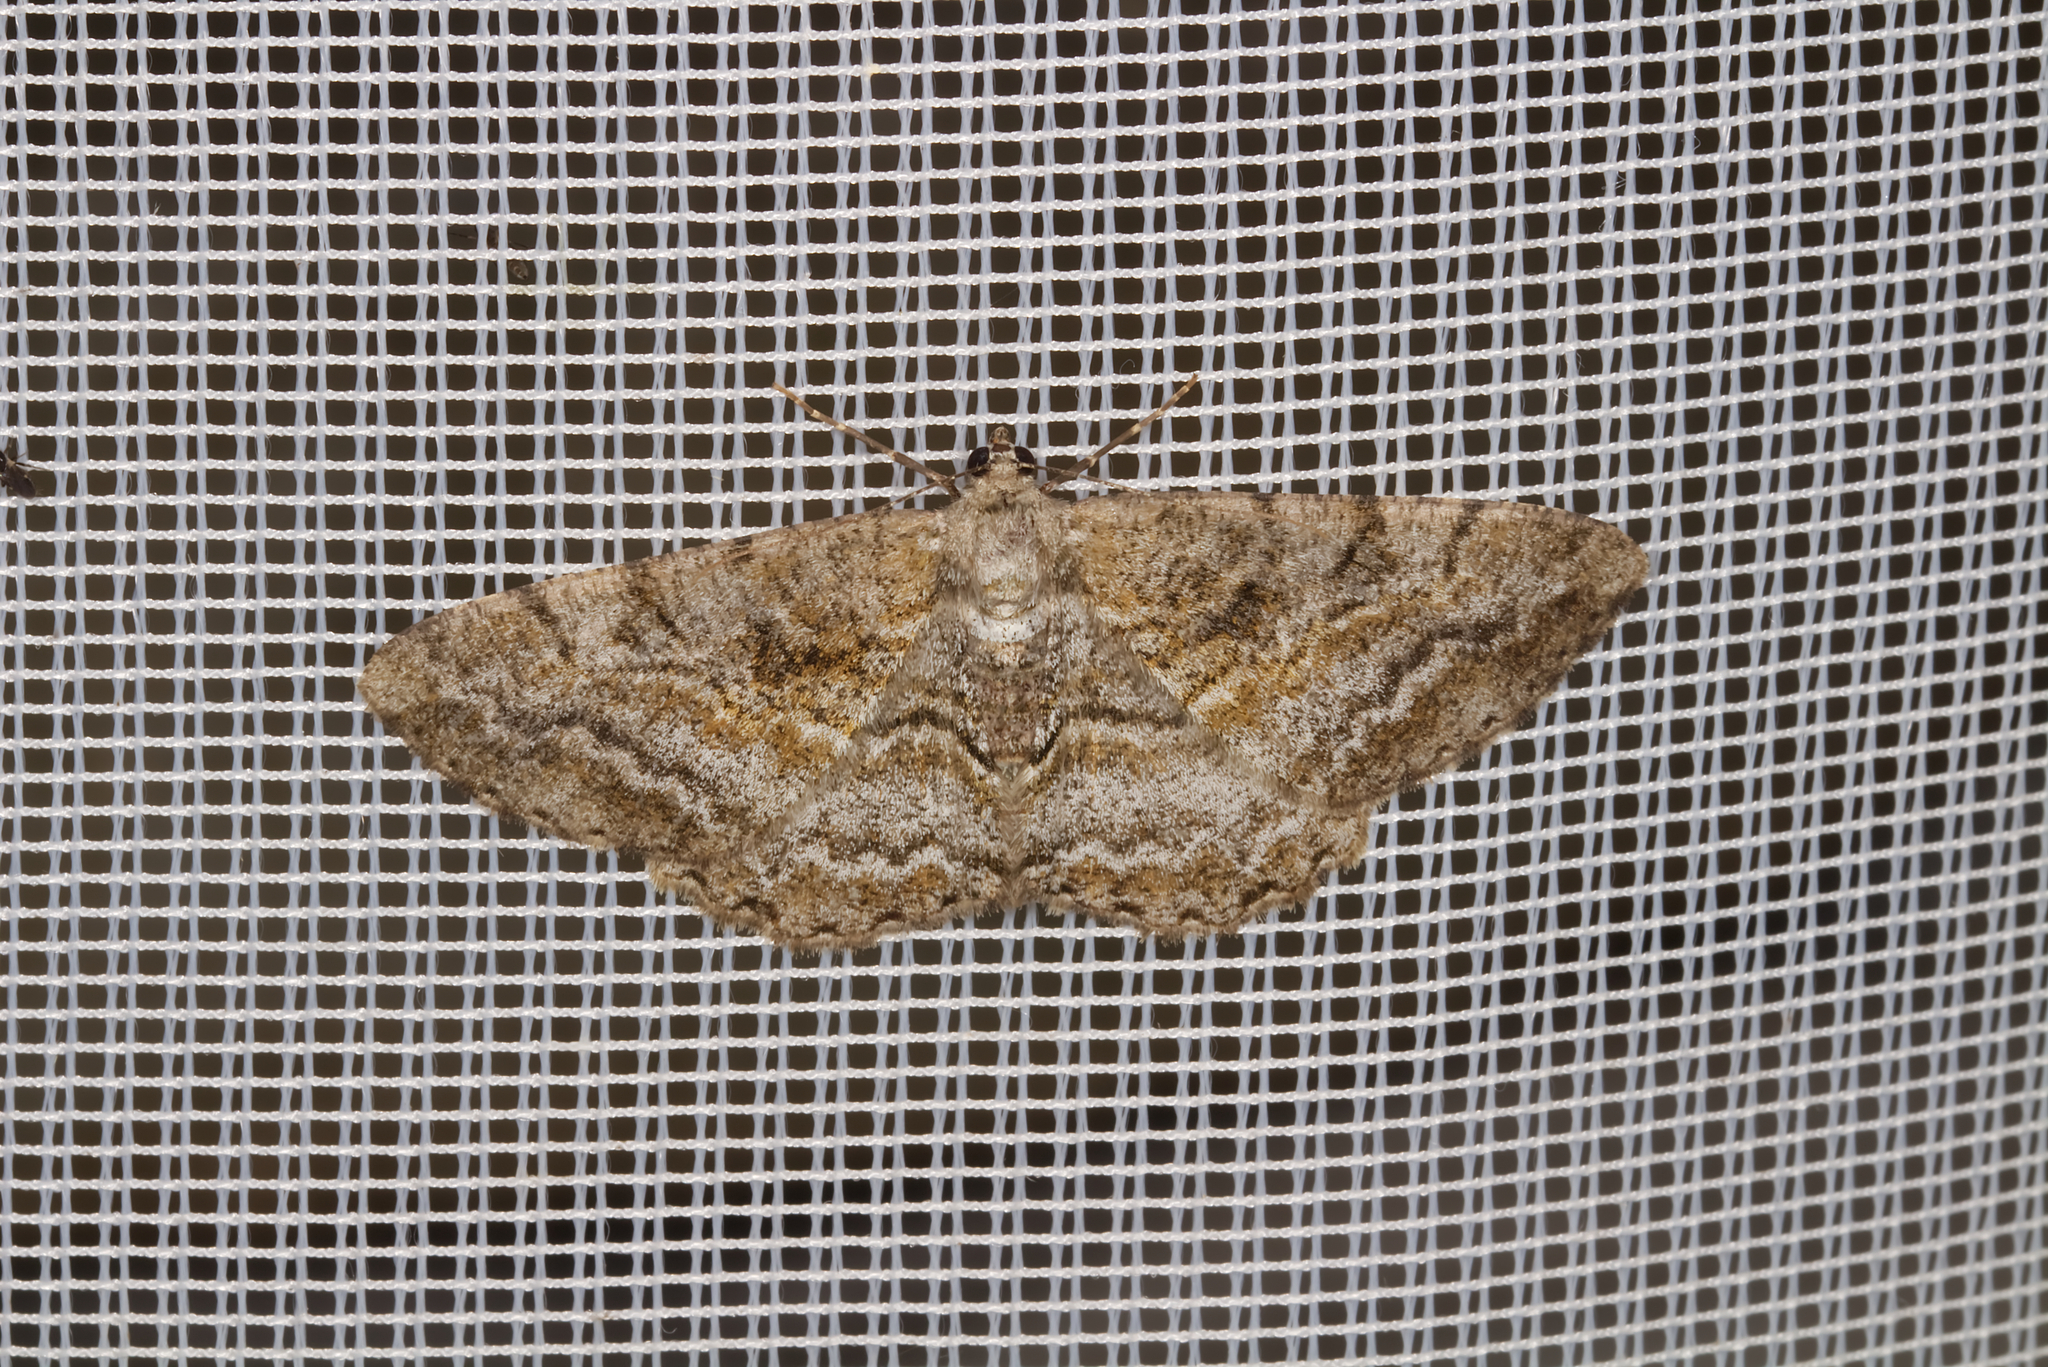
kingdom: Animalia
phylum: Arthropoda
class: Insecta
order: Lepidoptera
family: Geometridae
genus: Alcis
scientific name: Alcis repandata
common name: Mottled beauty
